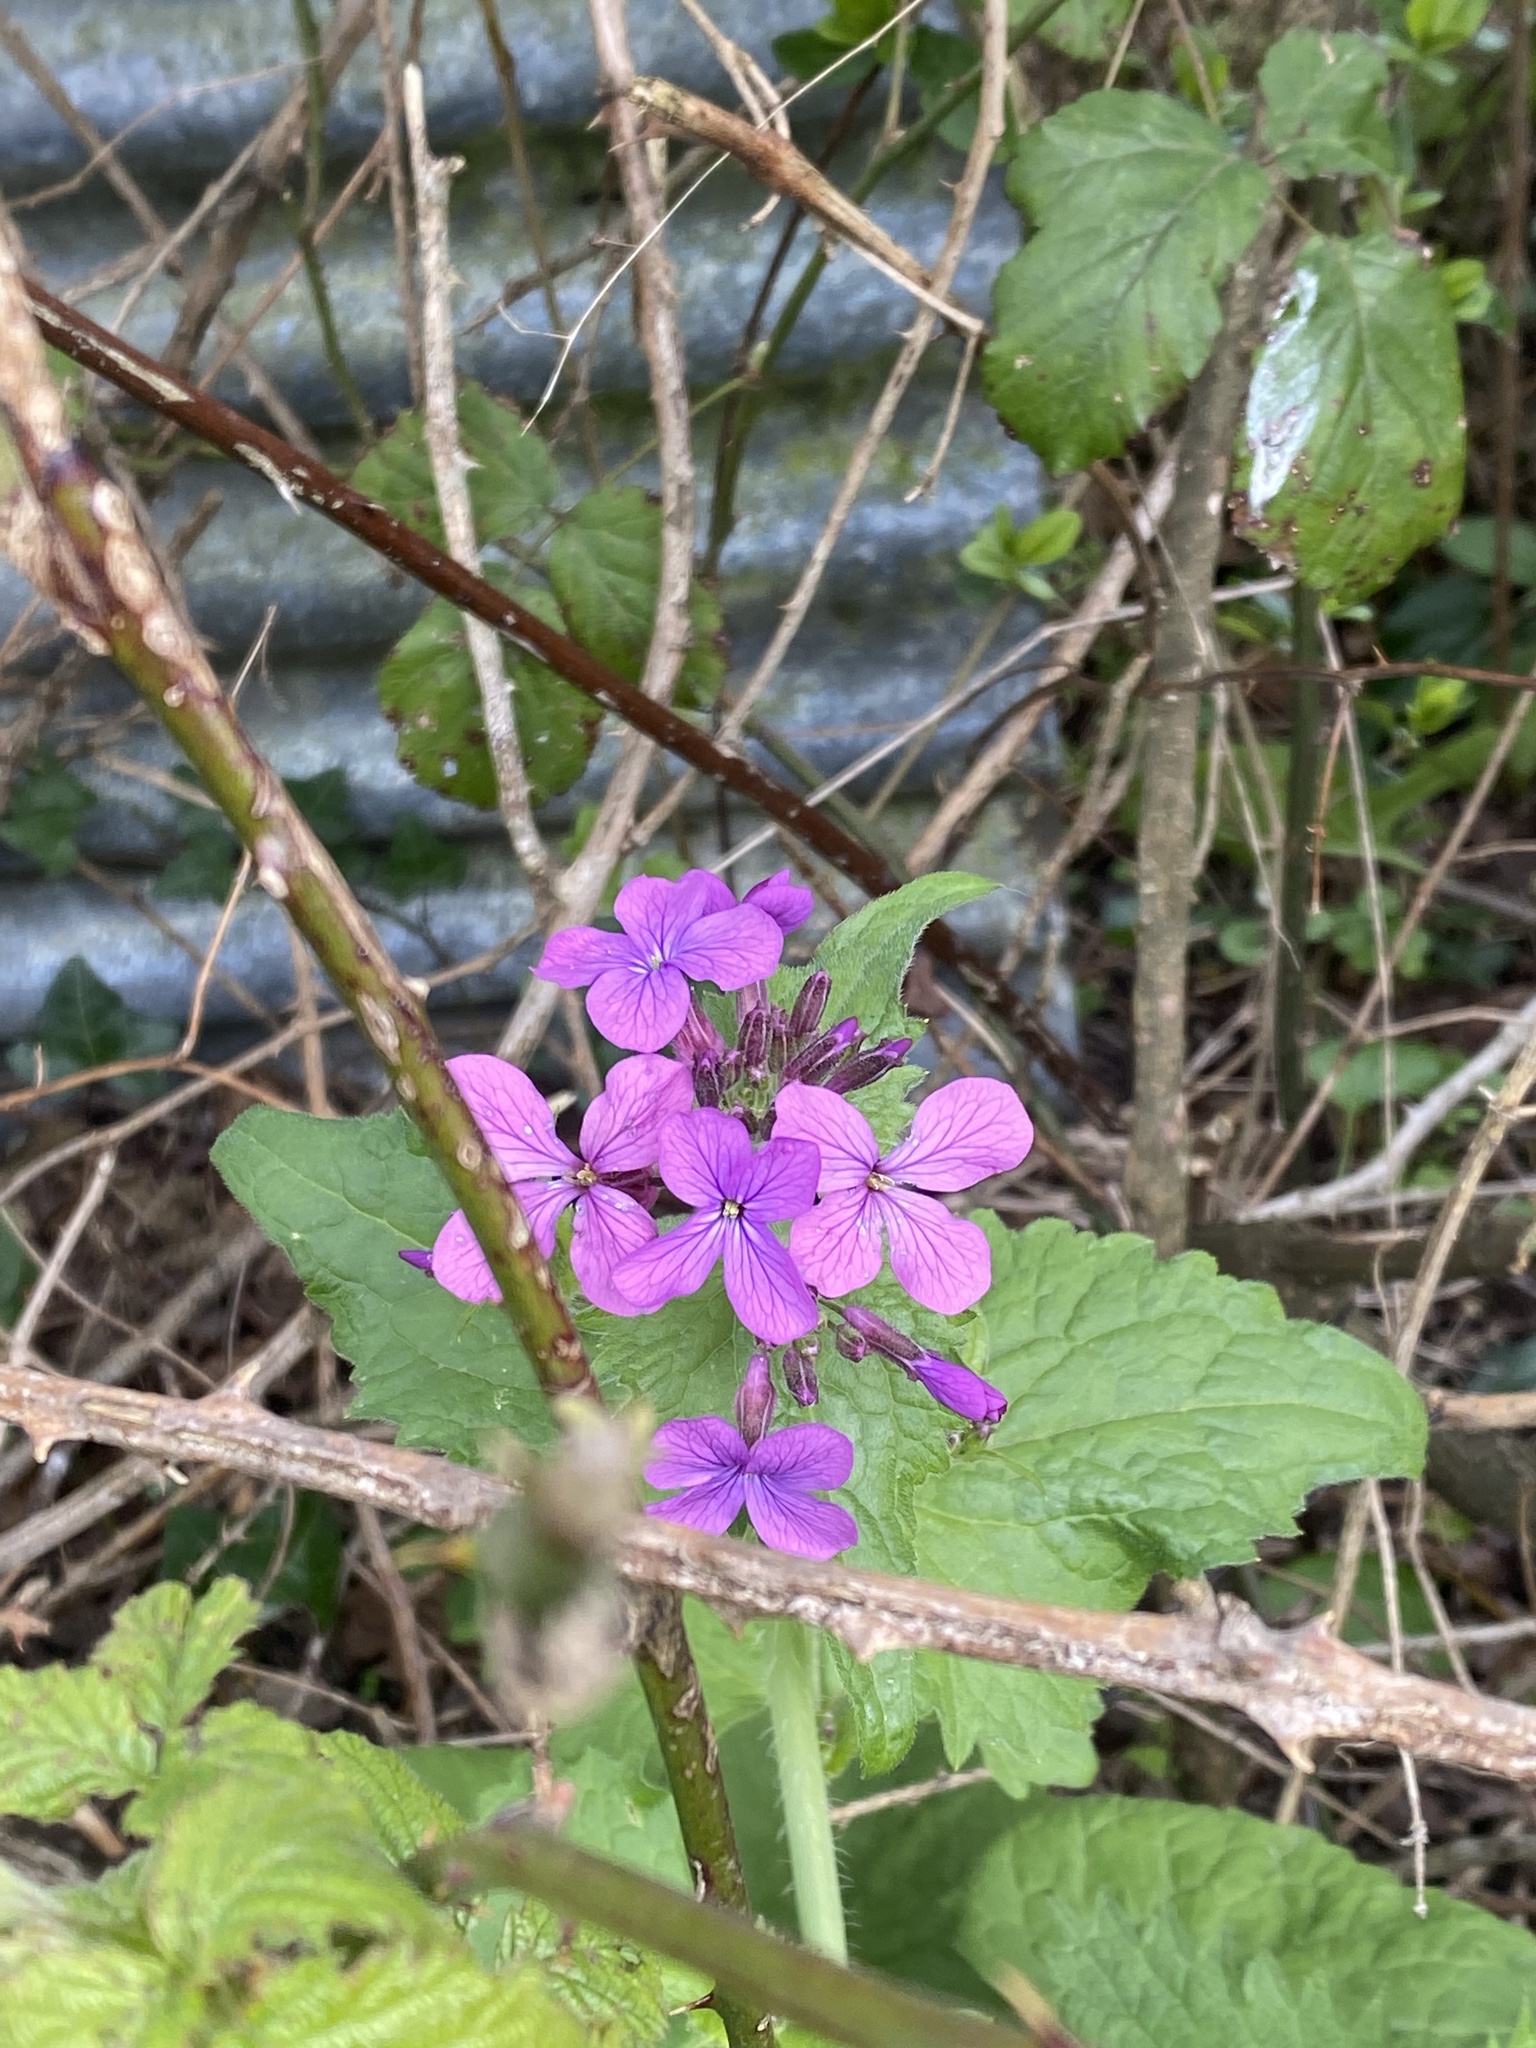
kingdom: Plantae
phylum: Tracheophyta
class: Magnoliopsida
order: Brassicales
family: Brassicaceae
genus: Lunaria
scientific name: Lunaria annua
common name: Honesty
